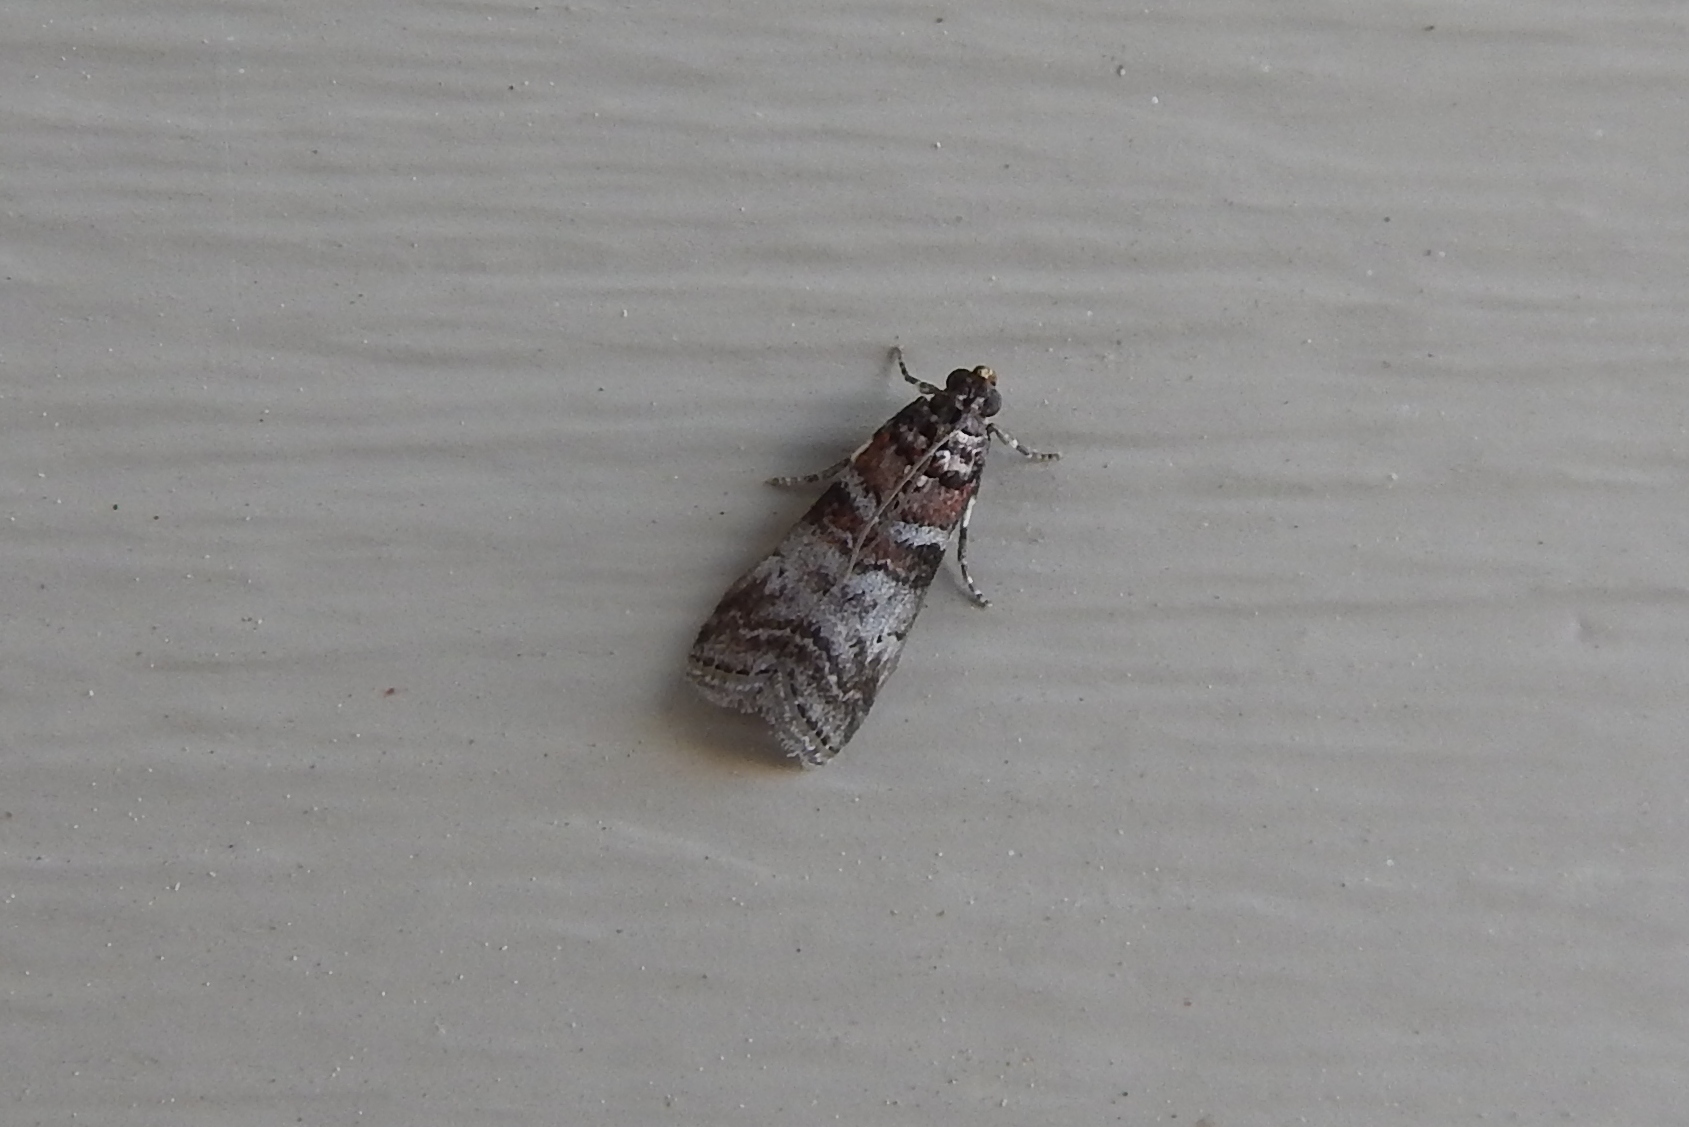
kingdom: Animalia
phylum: Arthropoda
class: Insecta
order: Lepidoptera
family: Pyralidae
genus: Sciota
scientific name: Sciota uvinella
